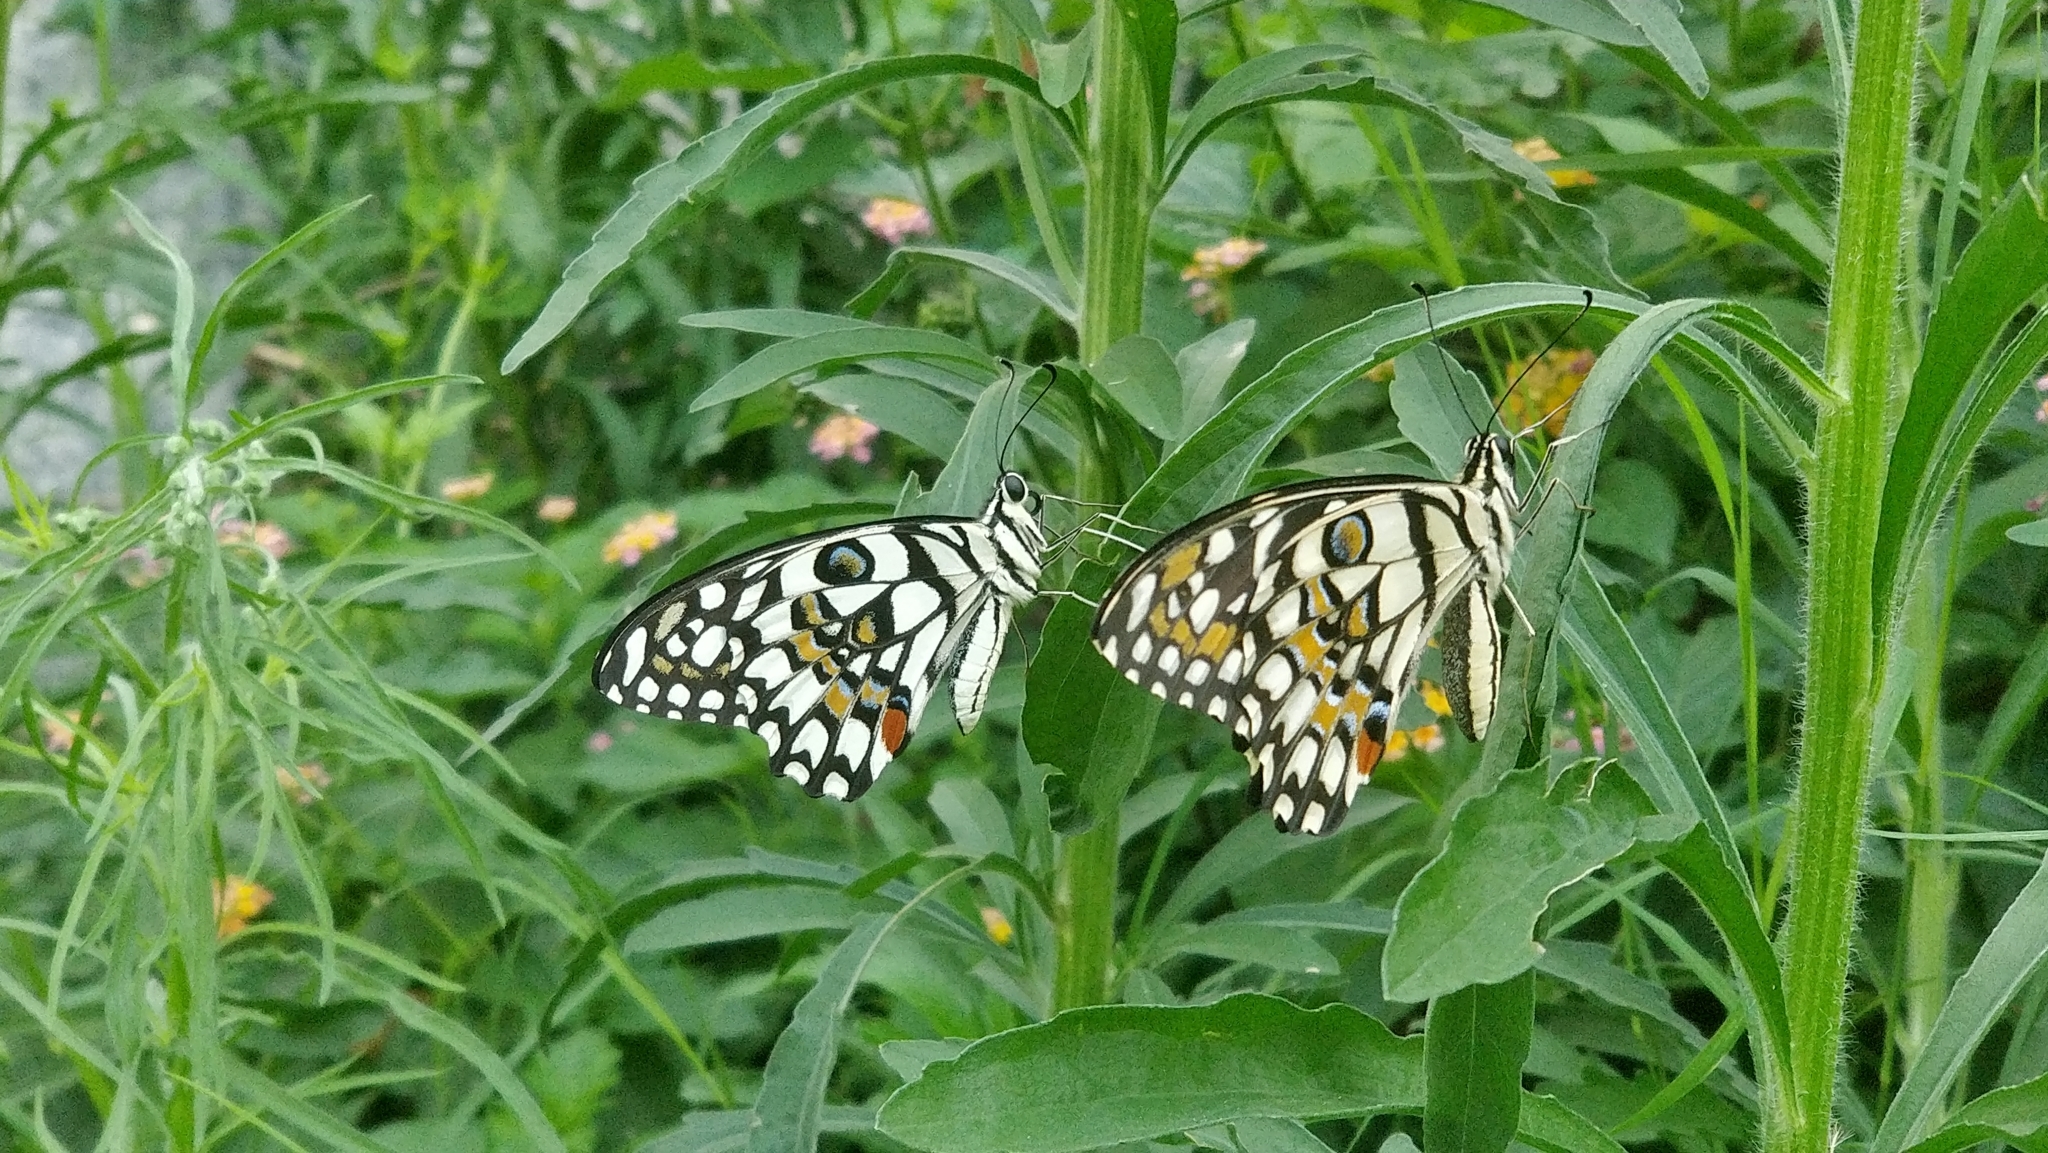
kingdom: Animalia
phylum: Arthropoda
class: Insecta
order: Lepidoptera
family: Papilionidae
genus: Papilio
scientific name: Papilio demoleus
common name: Lime butterfly
